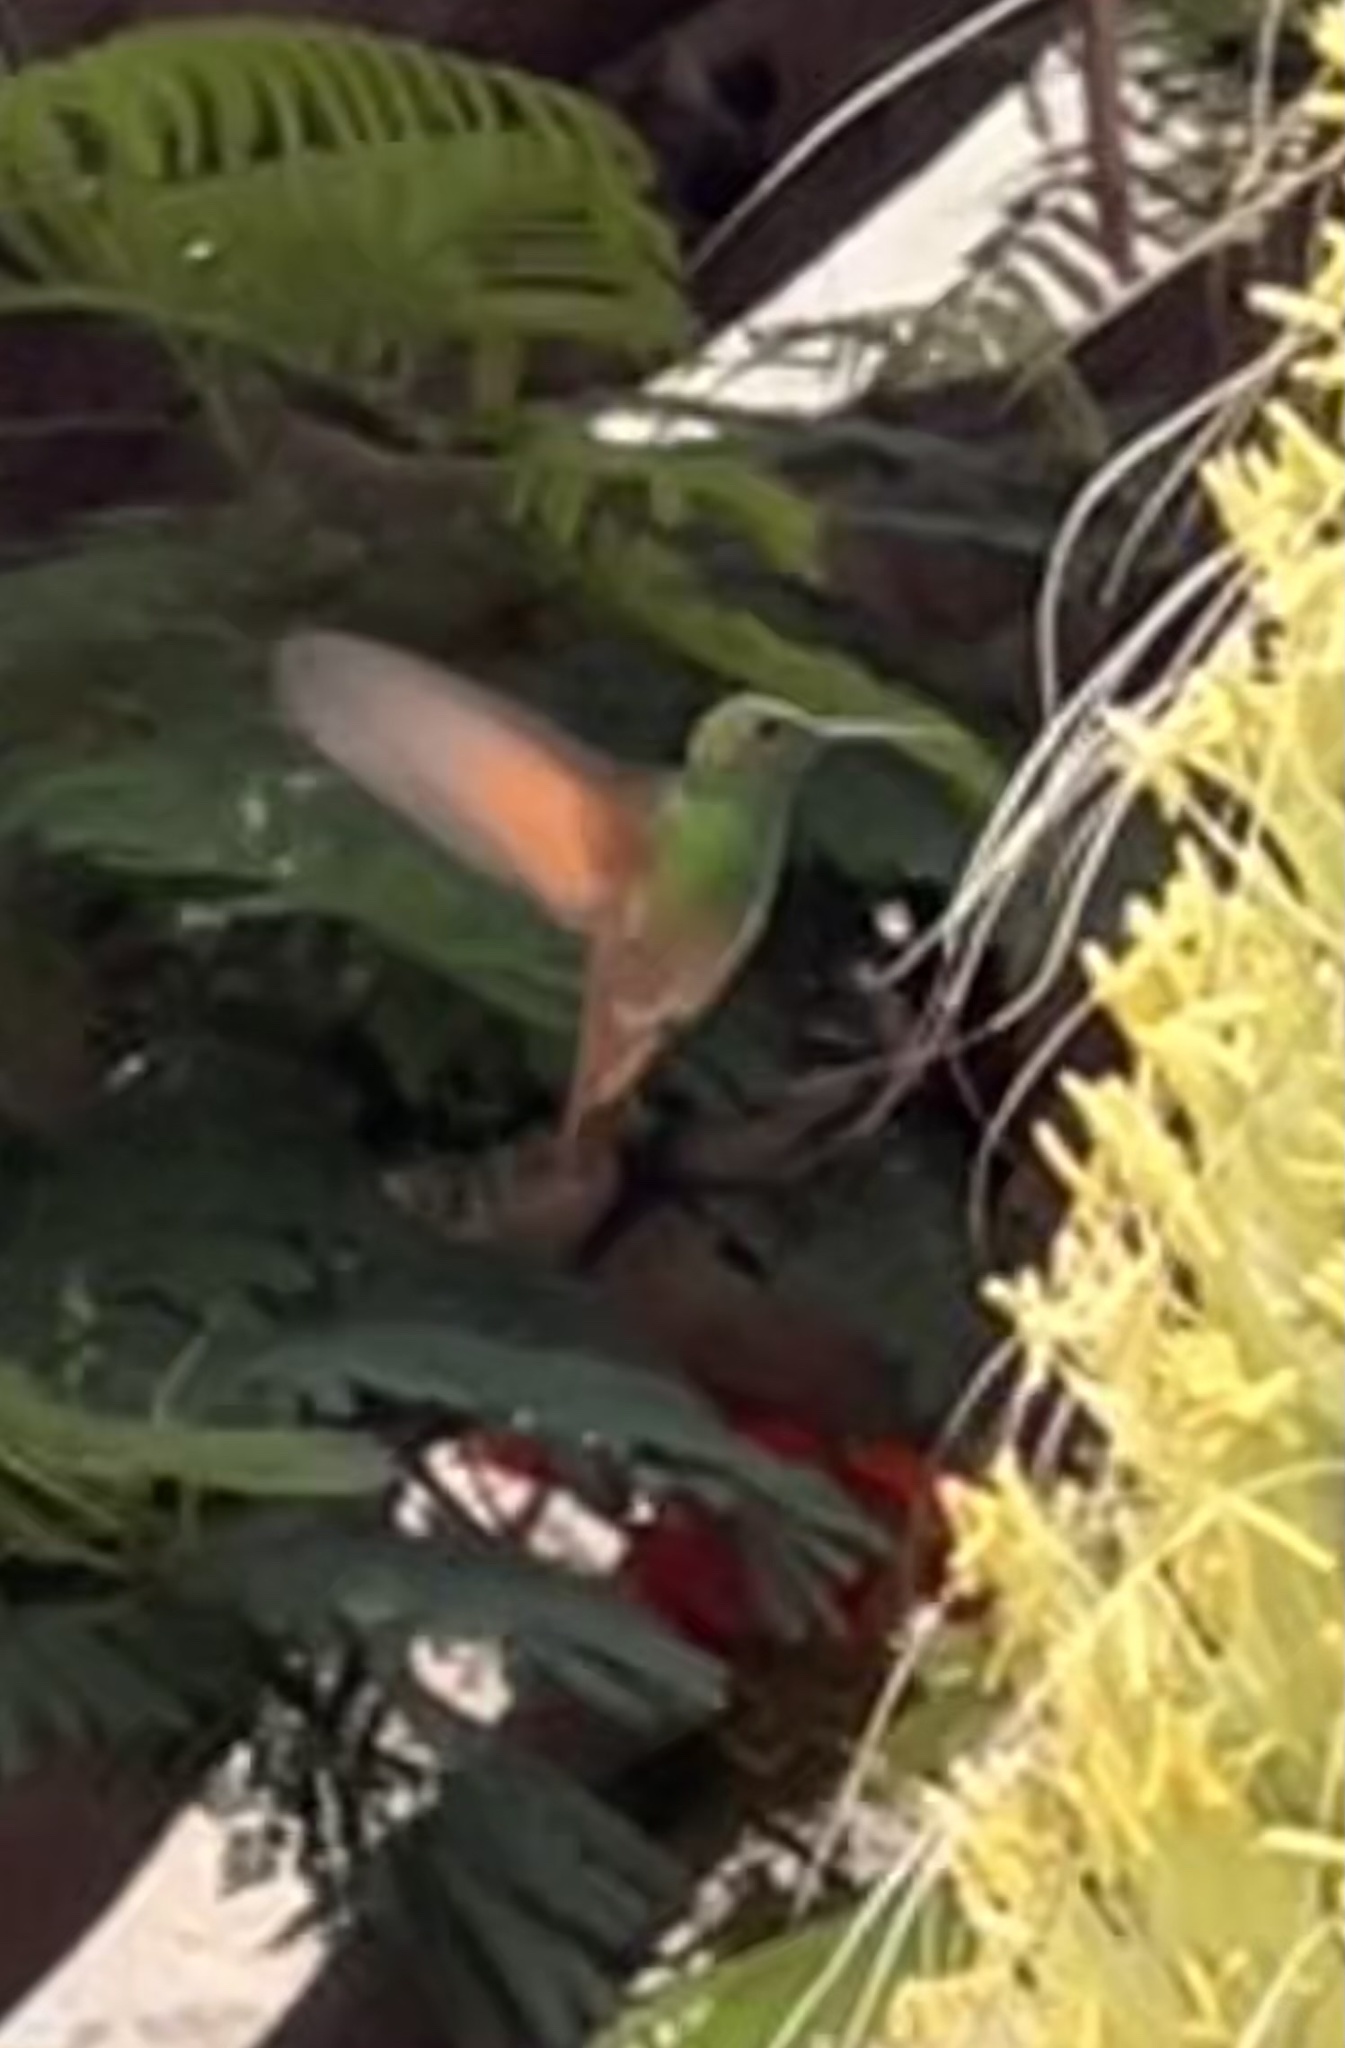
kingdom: Animalia
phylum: Chordata
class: Aves
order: Apodiformes
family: Trochilidae
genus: Saucerottia
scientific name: Saucerottia beryllina
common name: Berylline hummingbird
